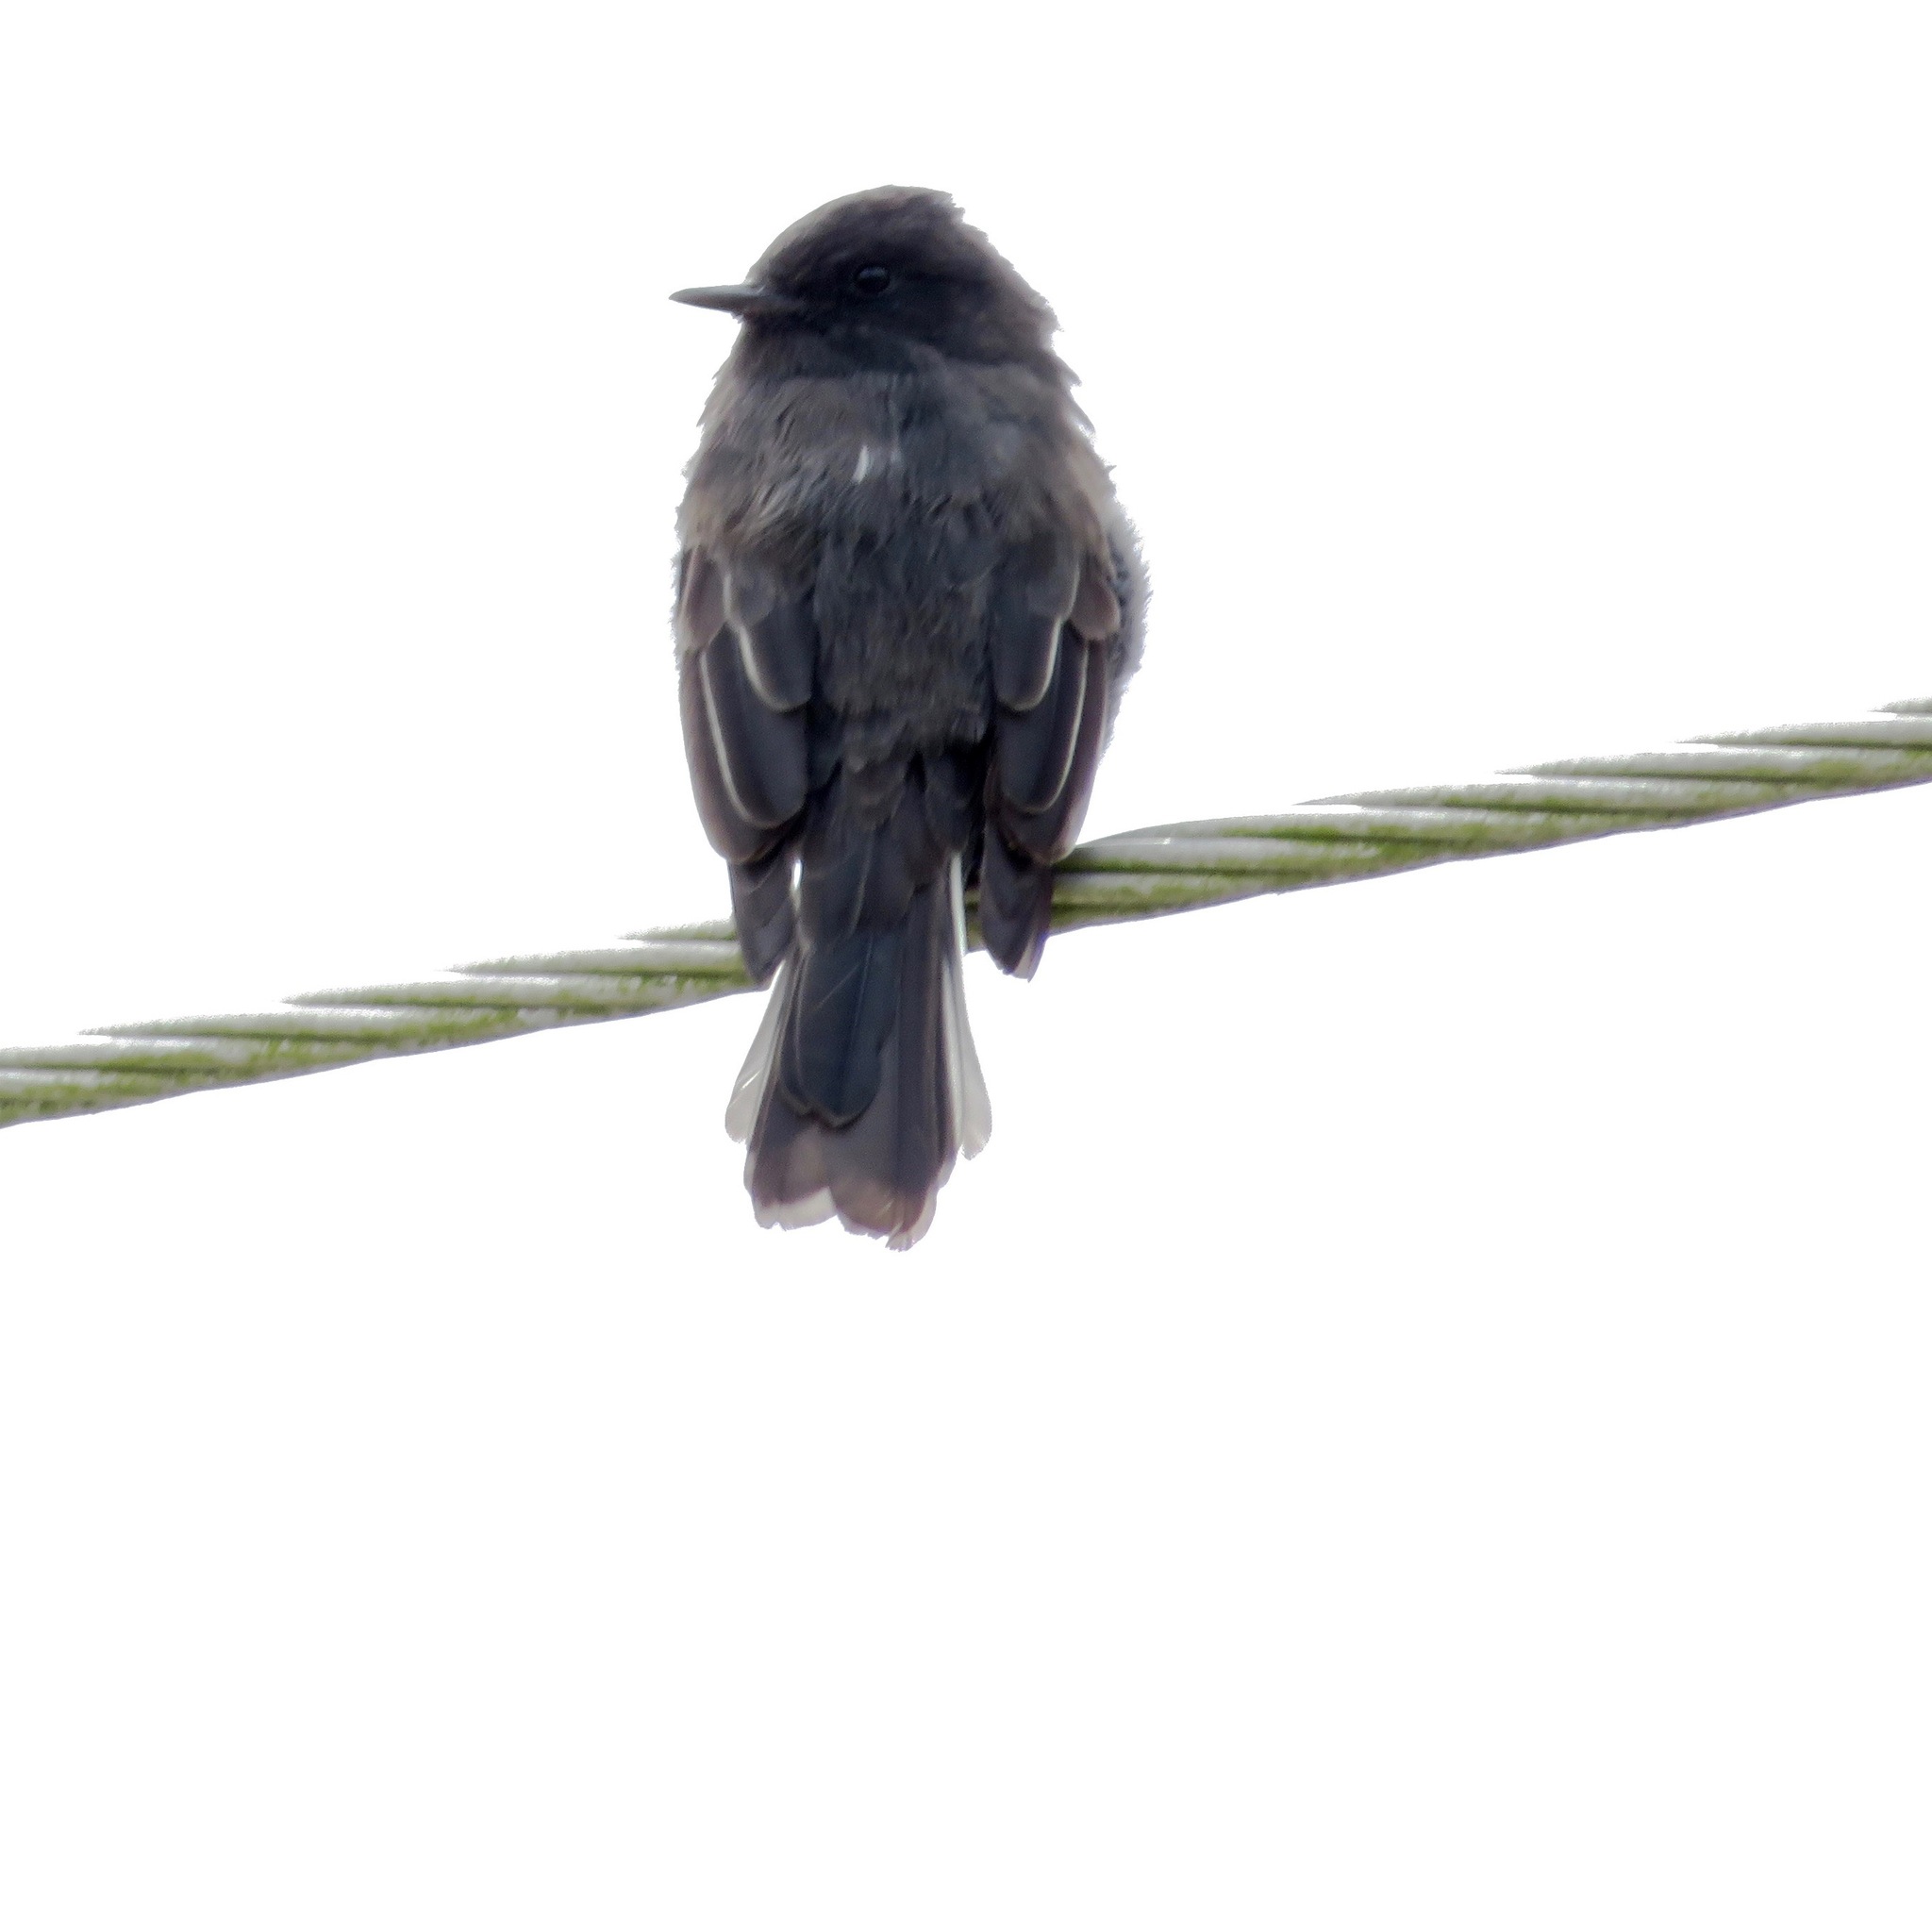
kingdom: Animalia
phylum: Chordata
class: Aves
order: Passeriformes
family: Tyrannidae
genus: Sayornis
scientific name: Sayornis nigricans
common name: Black phoebe
